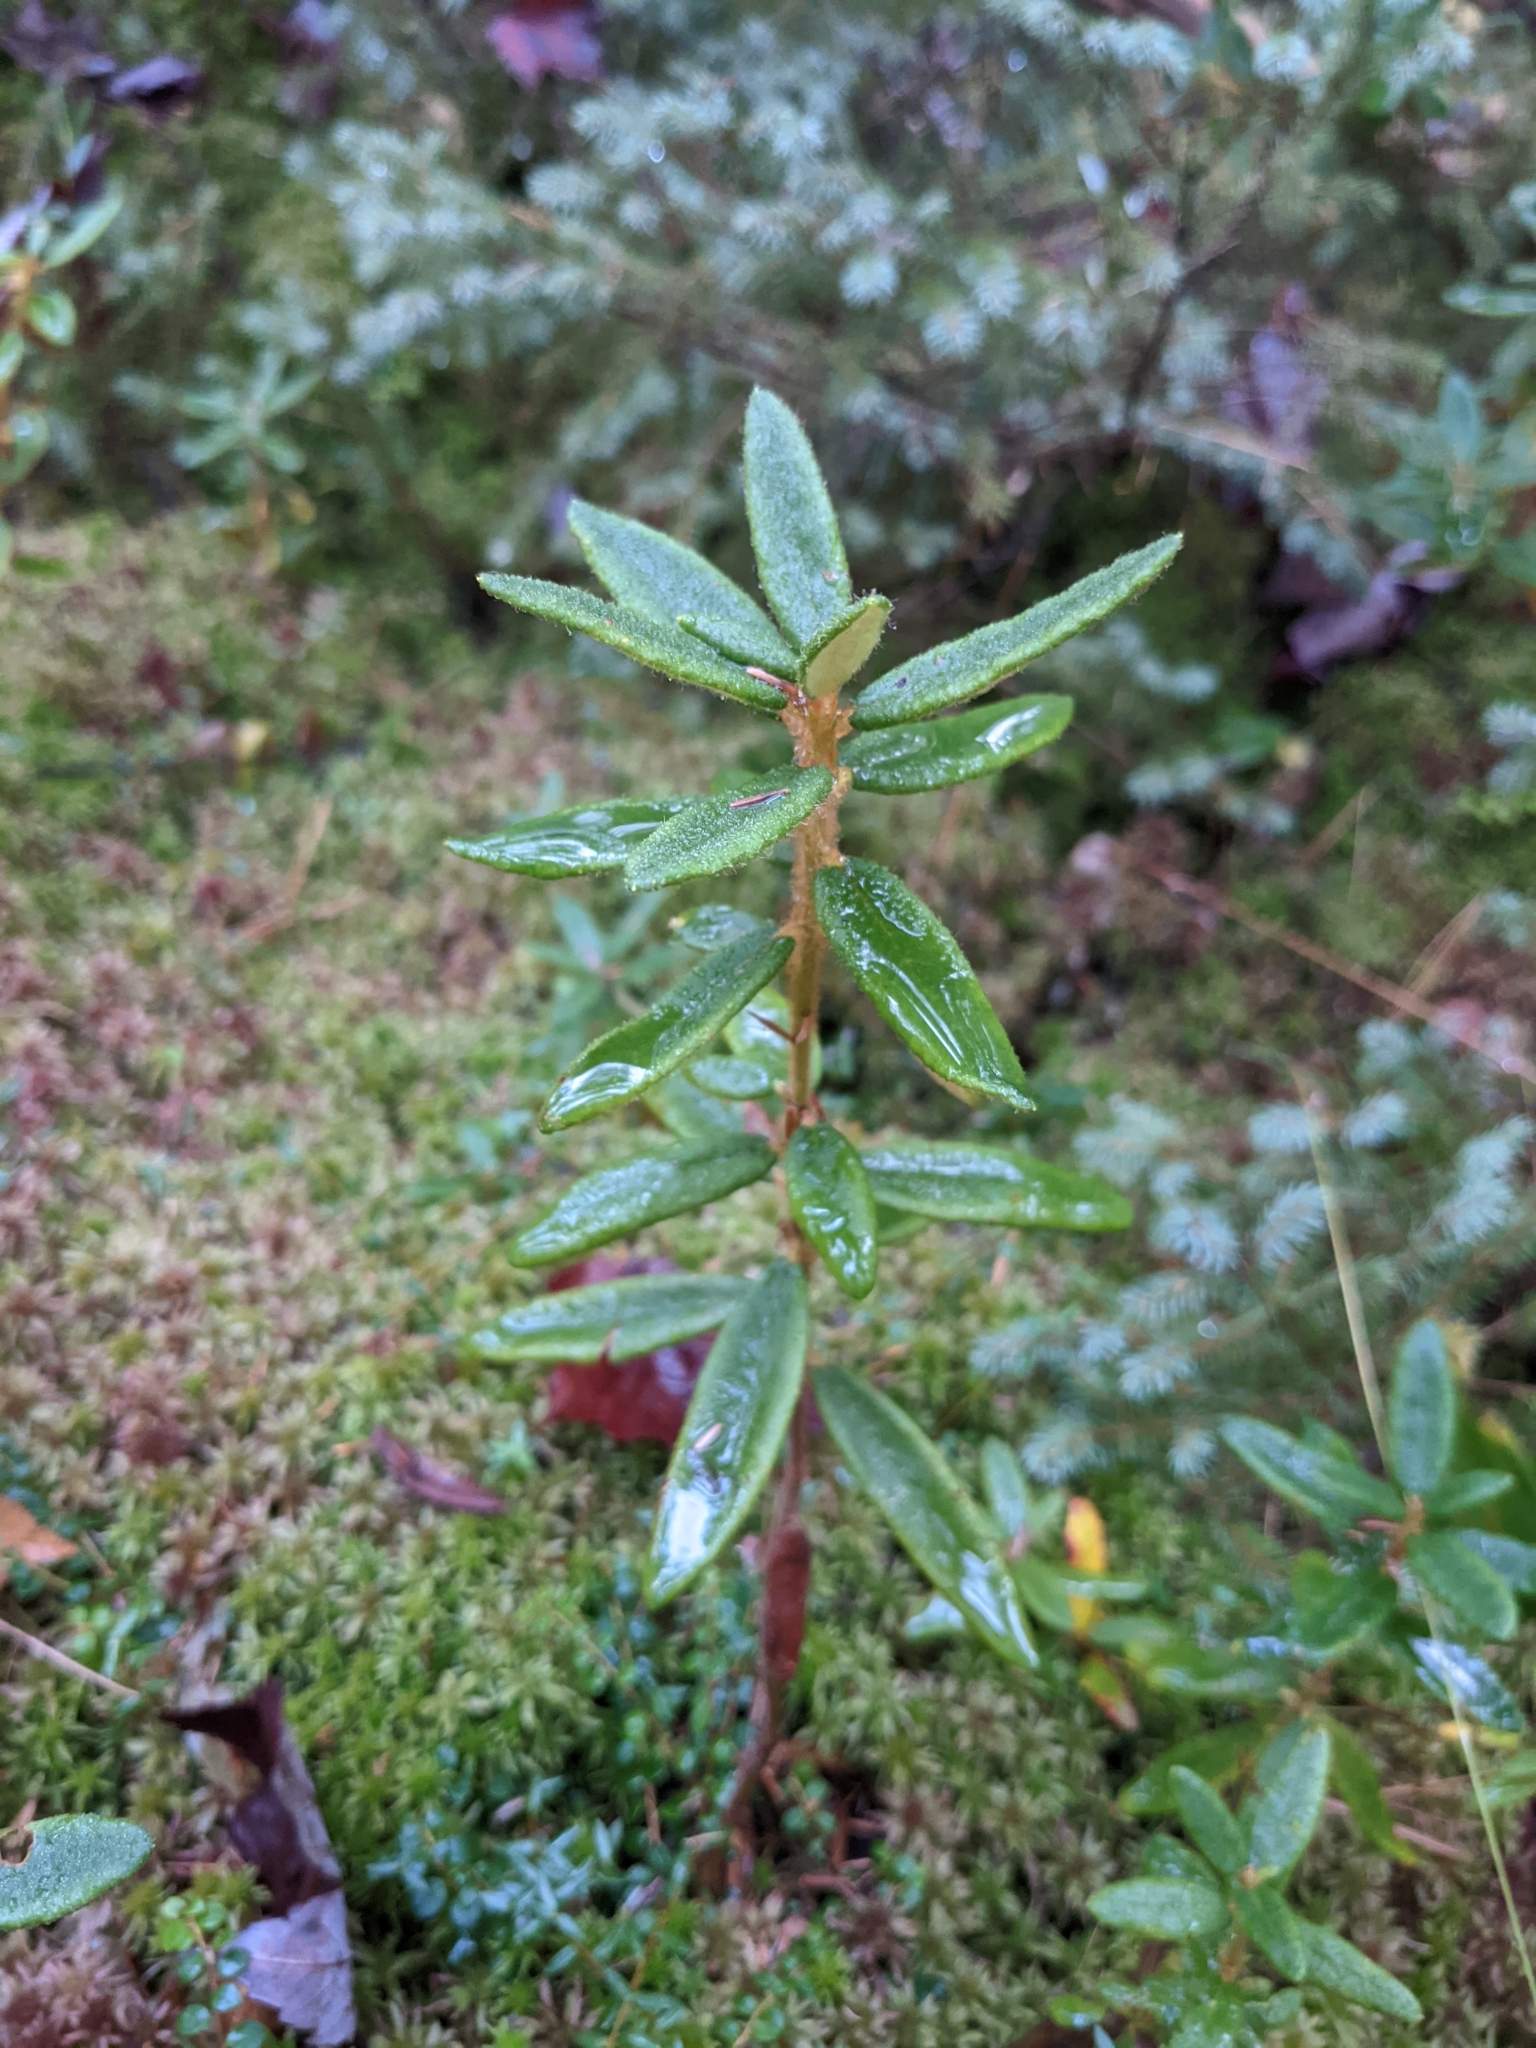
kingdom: Plantae
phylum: Tracheophyta
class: Magnoliopsida
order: Ericales
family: Ericaceae
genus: Rhododendron
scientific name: Rhododendron groenlandicum
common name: Bog labrador tea
